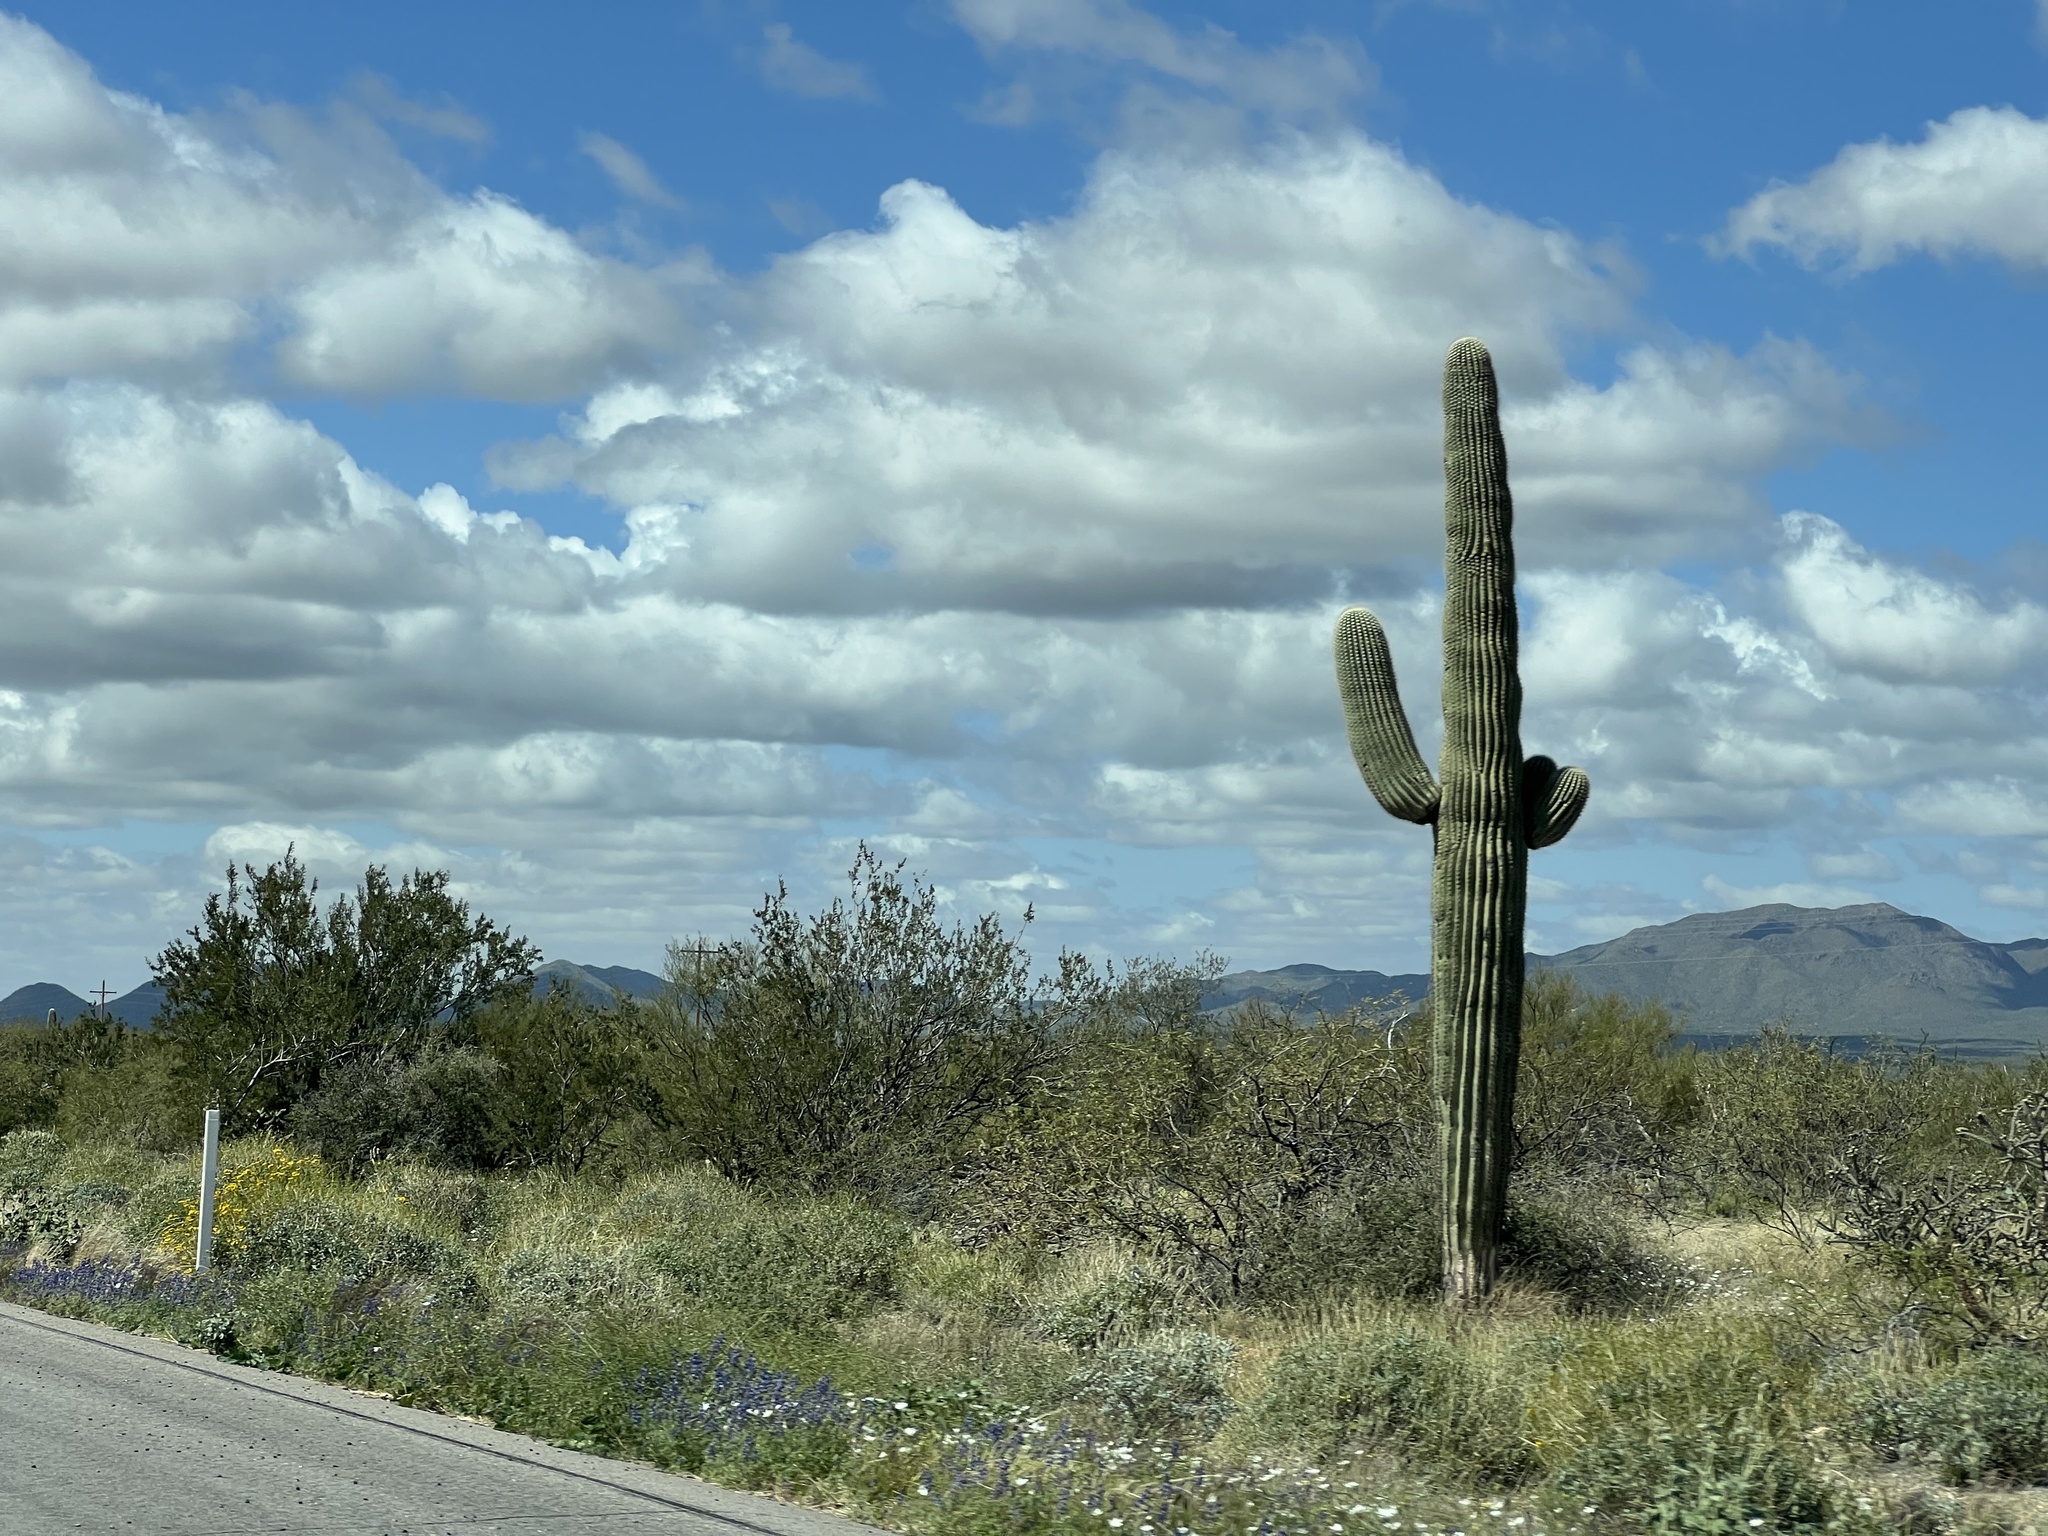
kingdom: Plantae
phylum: Tracheophyta
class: Magnoliopsida
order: Caryophyllales
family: Cactaceae
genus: Carnegiea
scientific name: Carnegiea gigantea
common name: Saguaro
